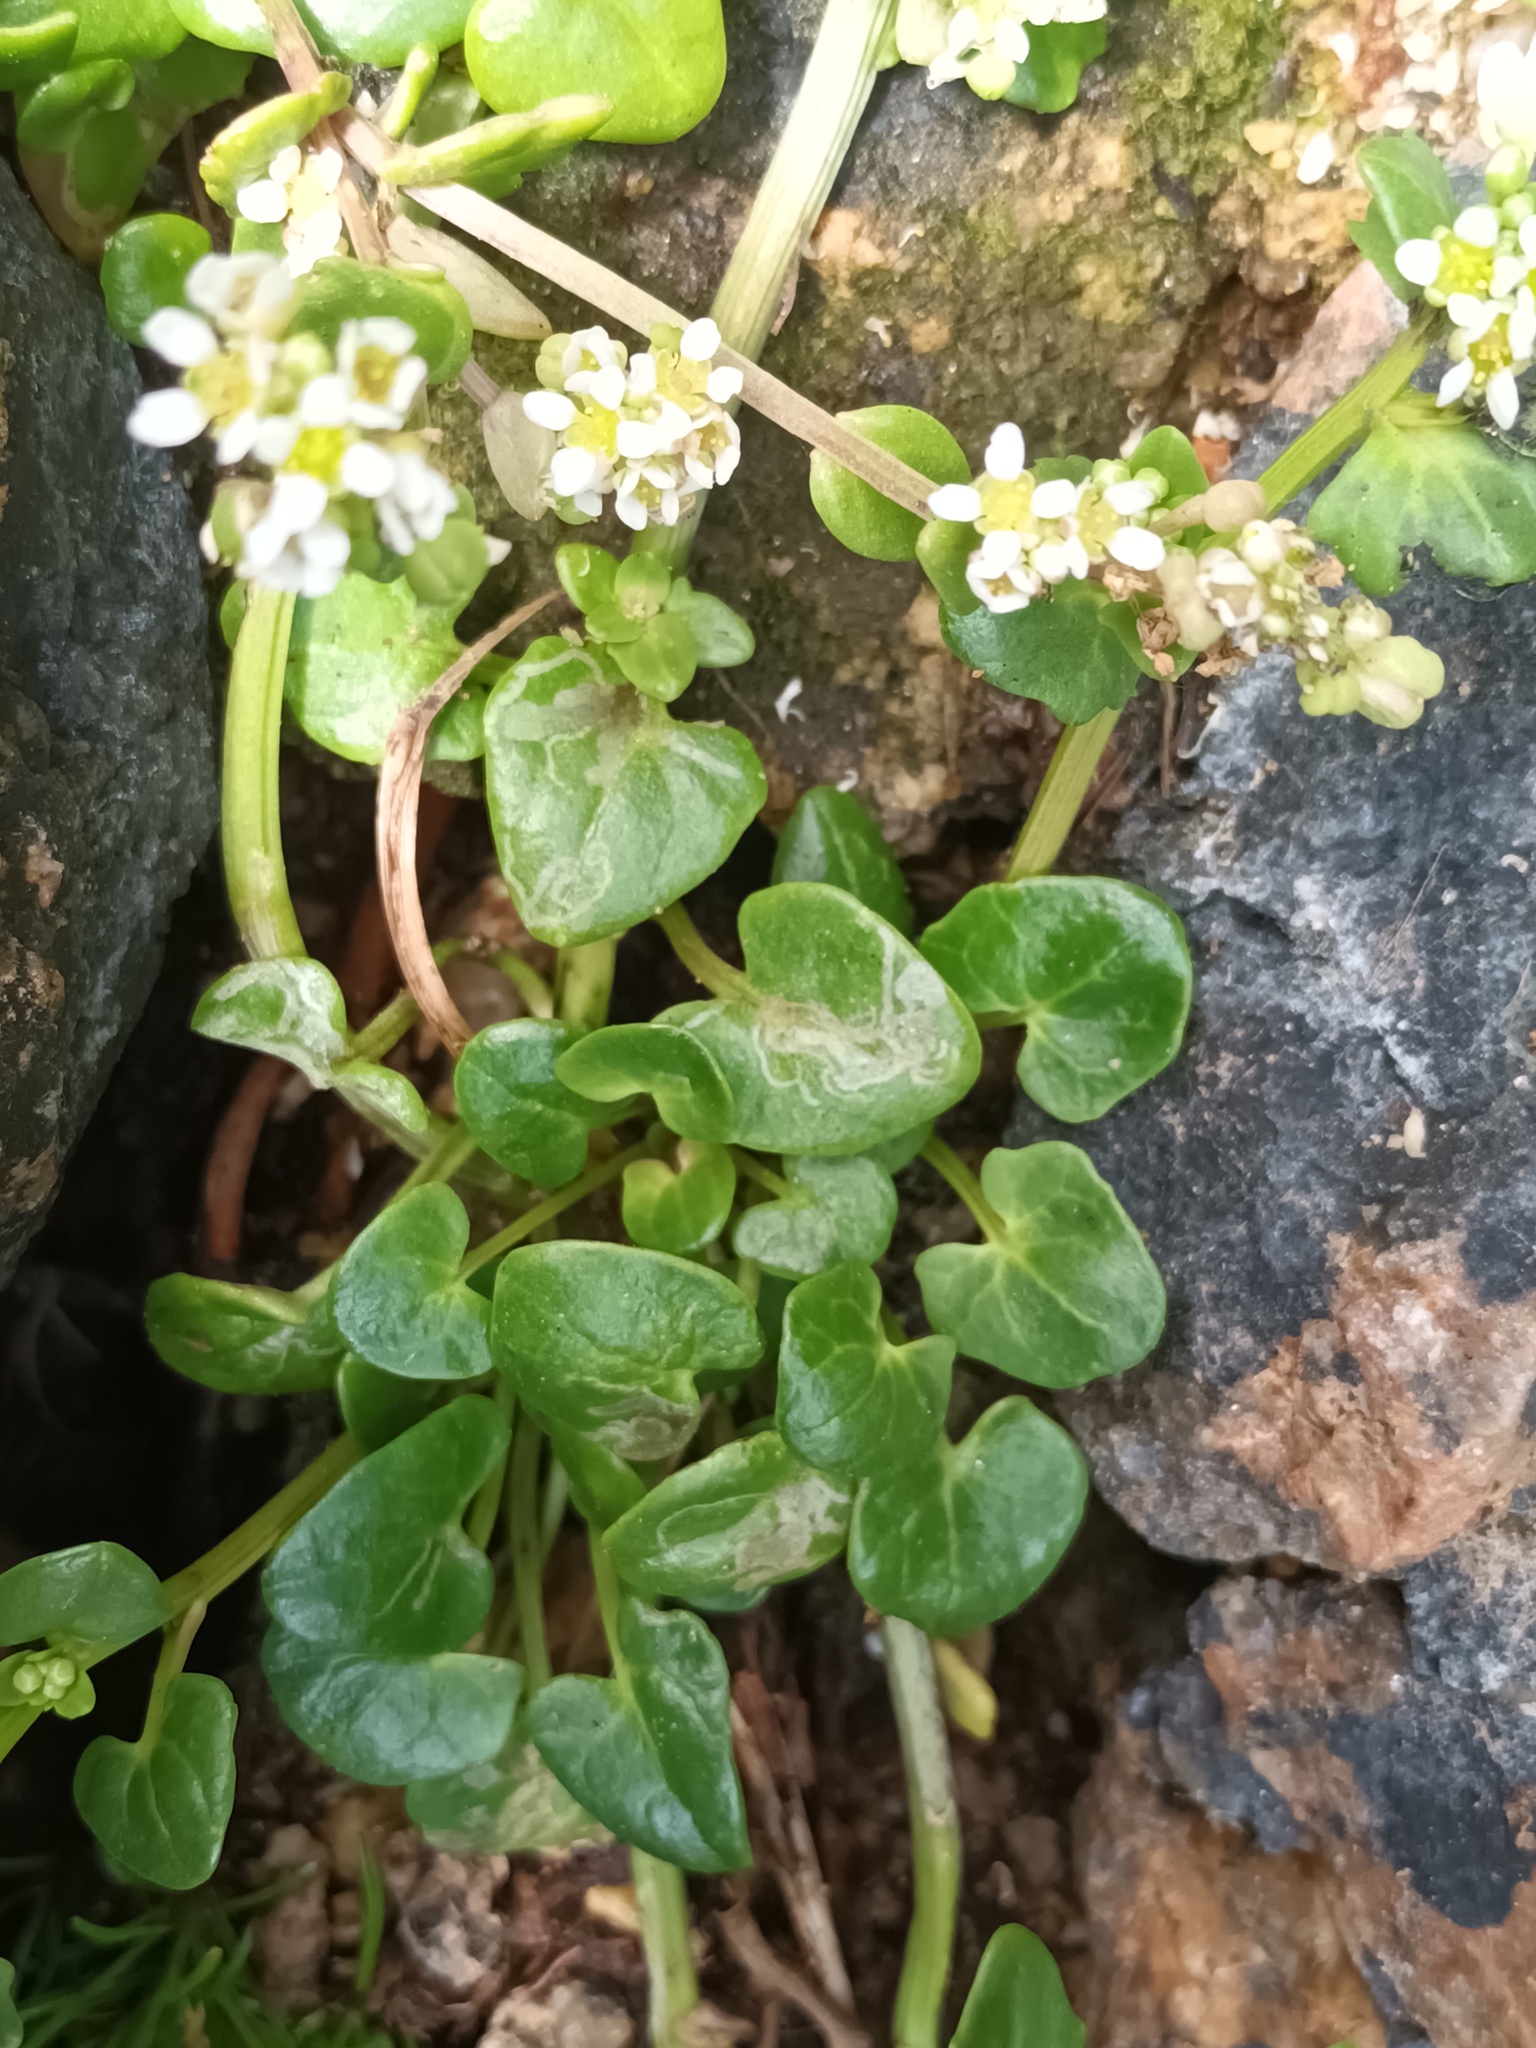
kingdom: Plantae
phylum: Tracheophyta
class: Magnoliopsida
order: Brassicales
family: Brassicaceae
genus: Cochlearia
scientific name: Cochlearia officinalis
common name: Scurvy-grass
